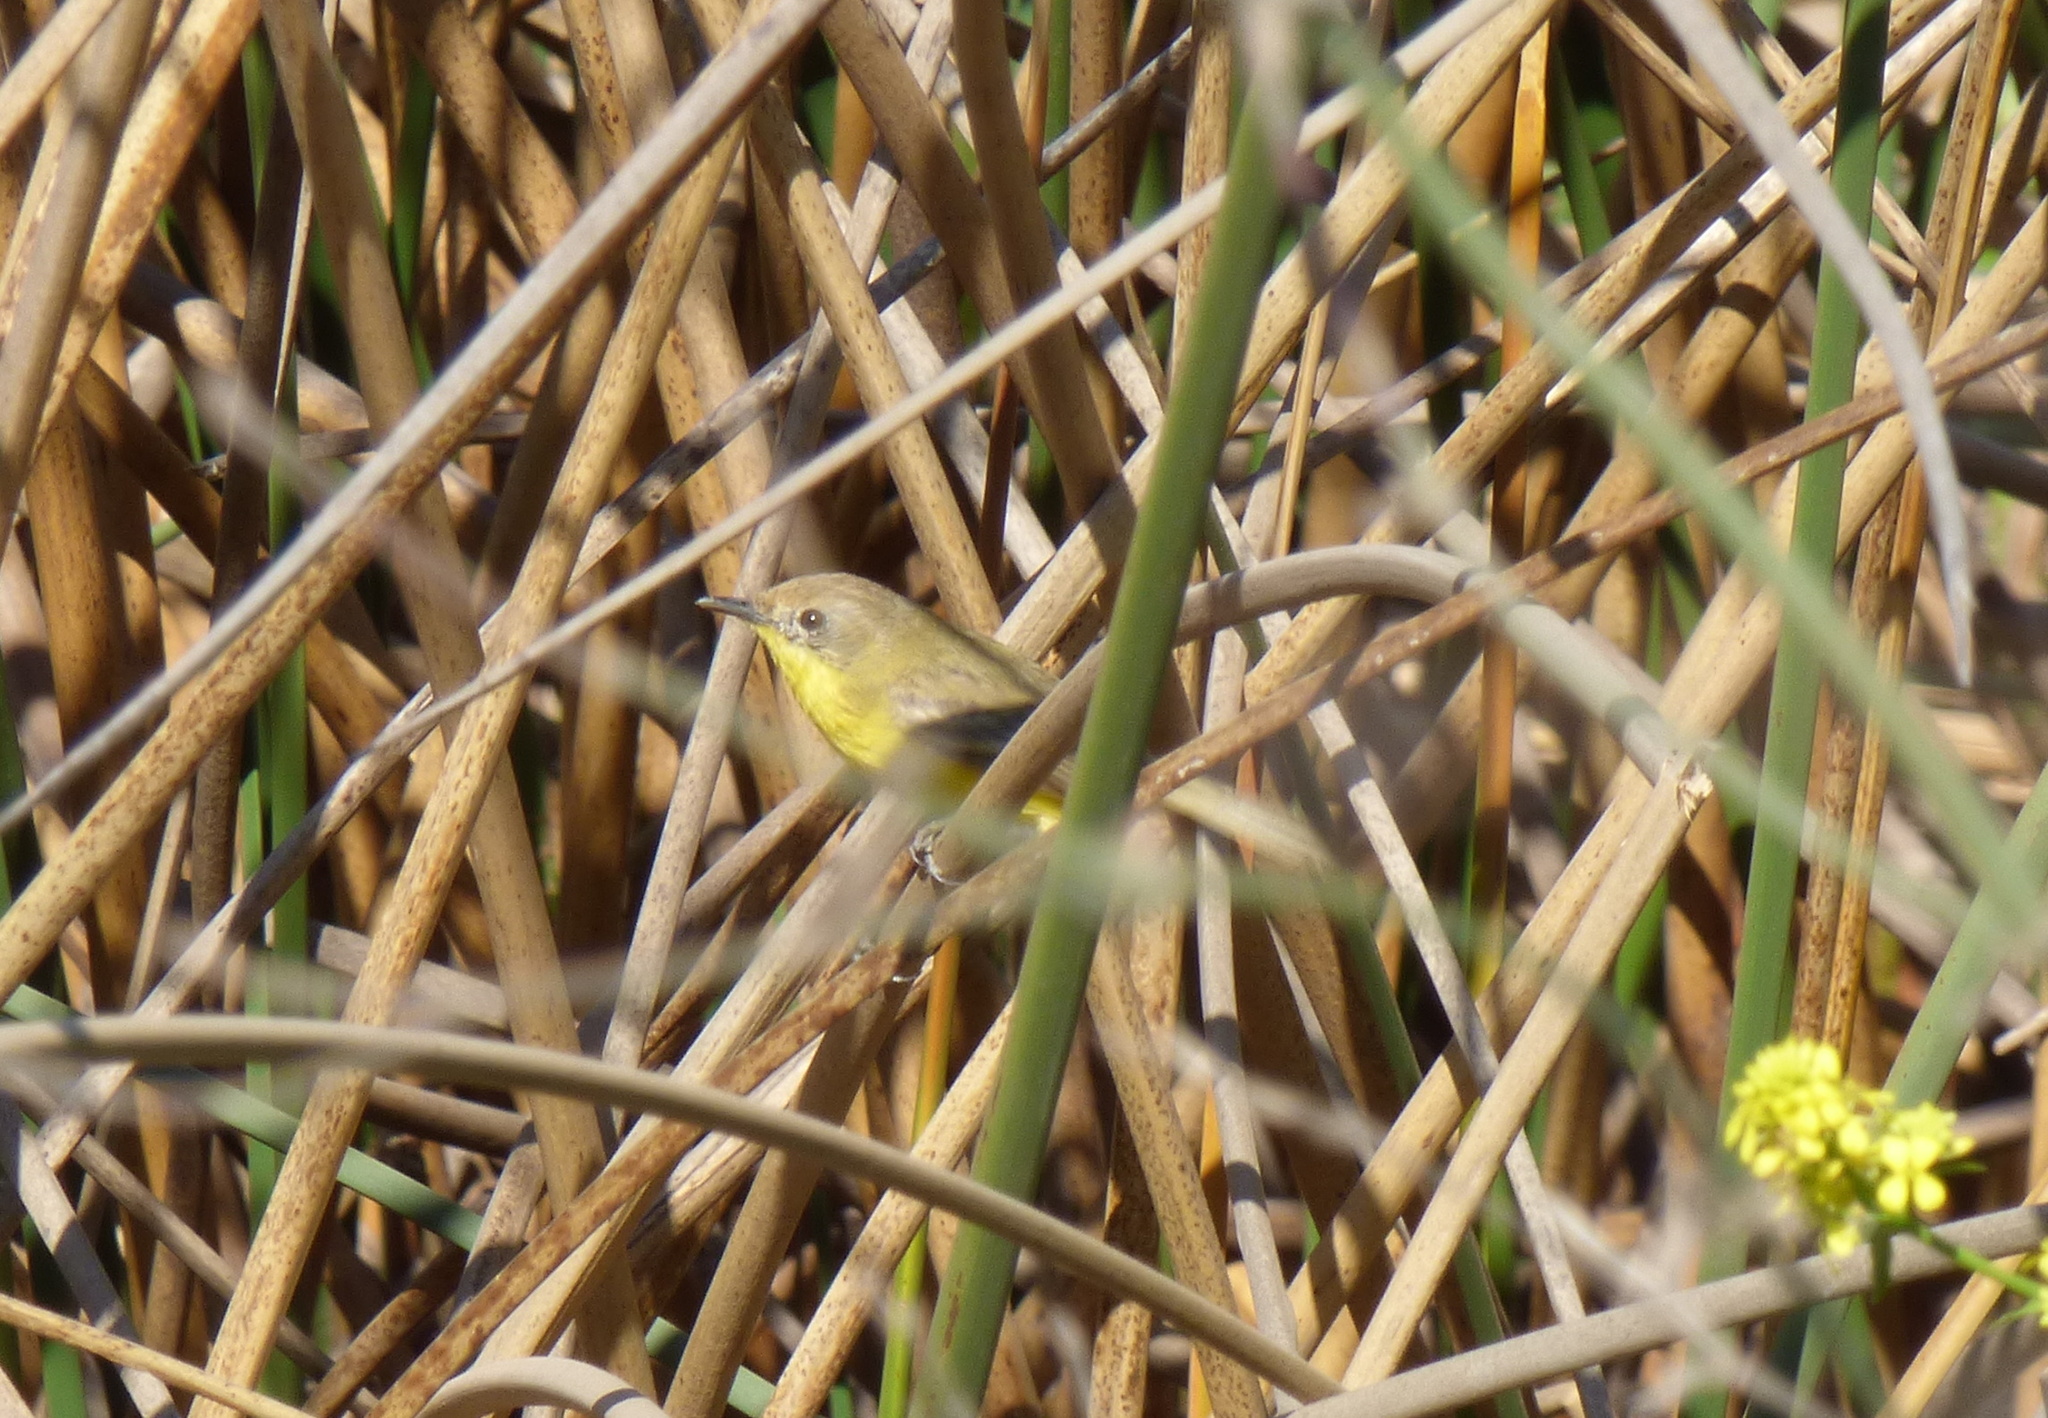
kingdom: Animalia
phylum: Chordata
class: Aves
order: Passeriformes
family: Tyrannidae
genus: Pseudocolopteryx
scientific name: Pseudocolopteryx dinelliana
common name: Dinelli's doradito
